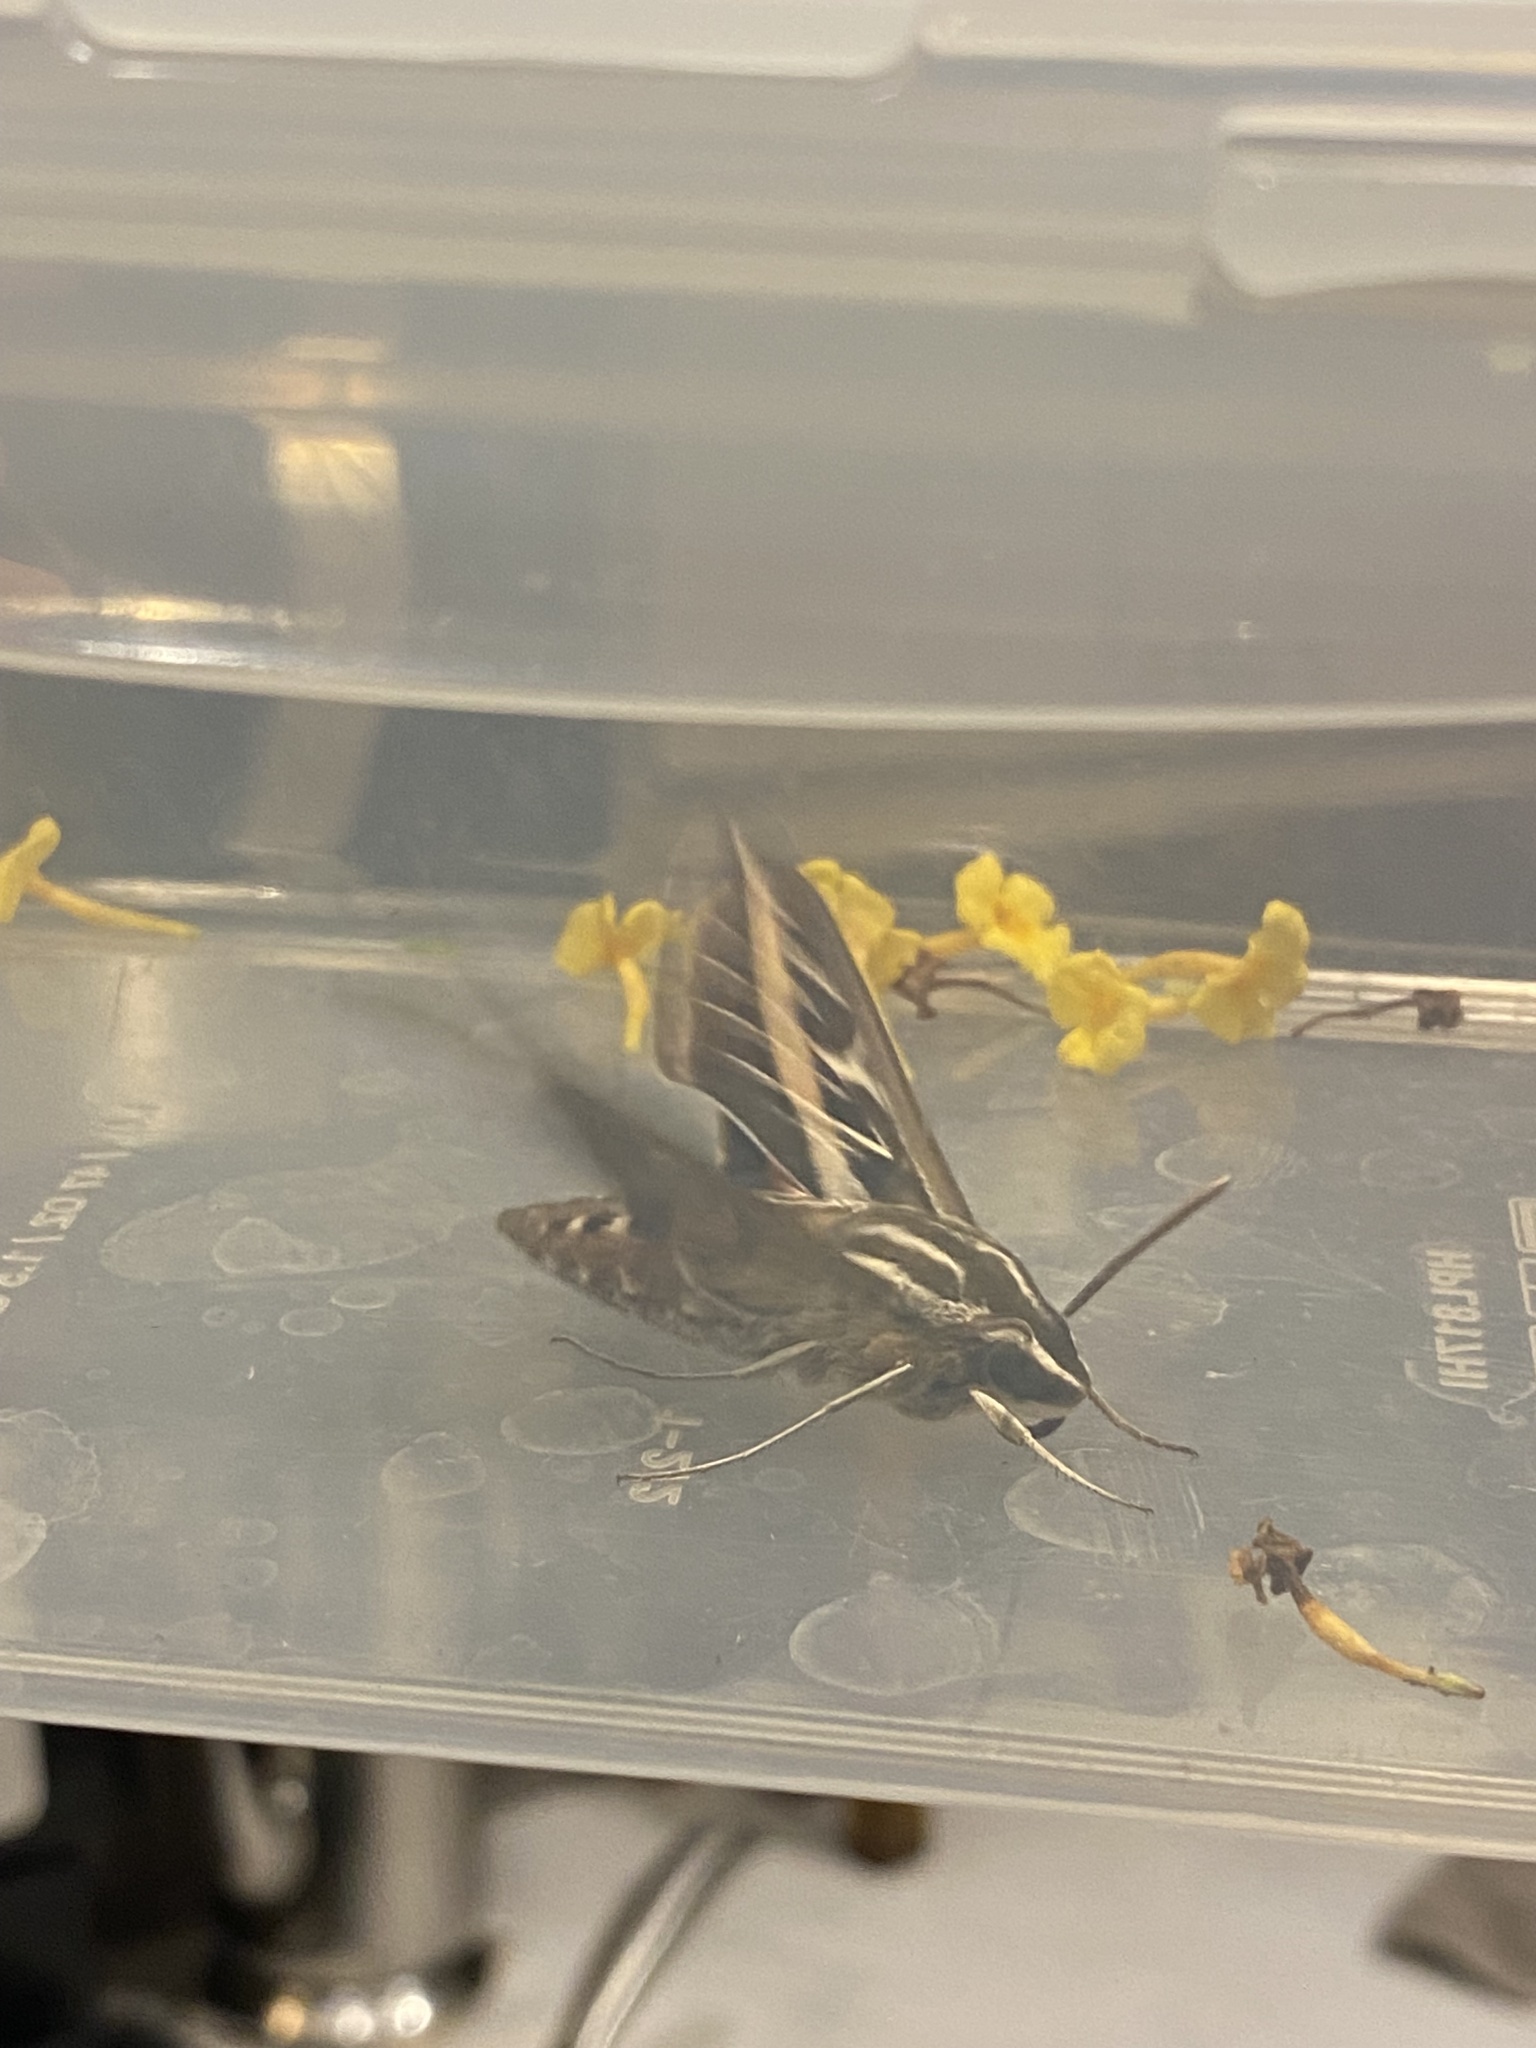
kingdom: Animalia
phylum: Arthropoda
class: Insecta
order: Lepidoptera
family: Sphingidae
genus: Hyles
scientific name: Hyles lineata
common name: White-lined sphinx
